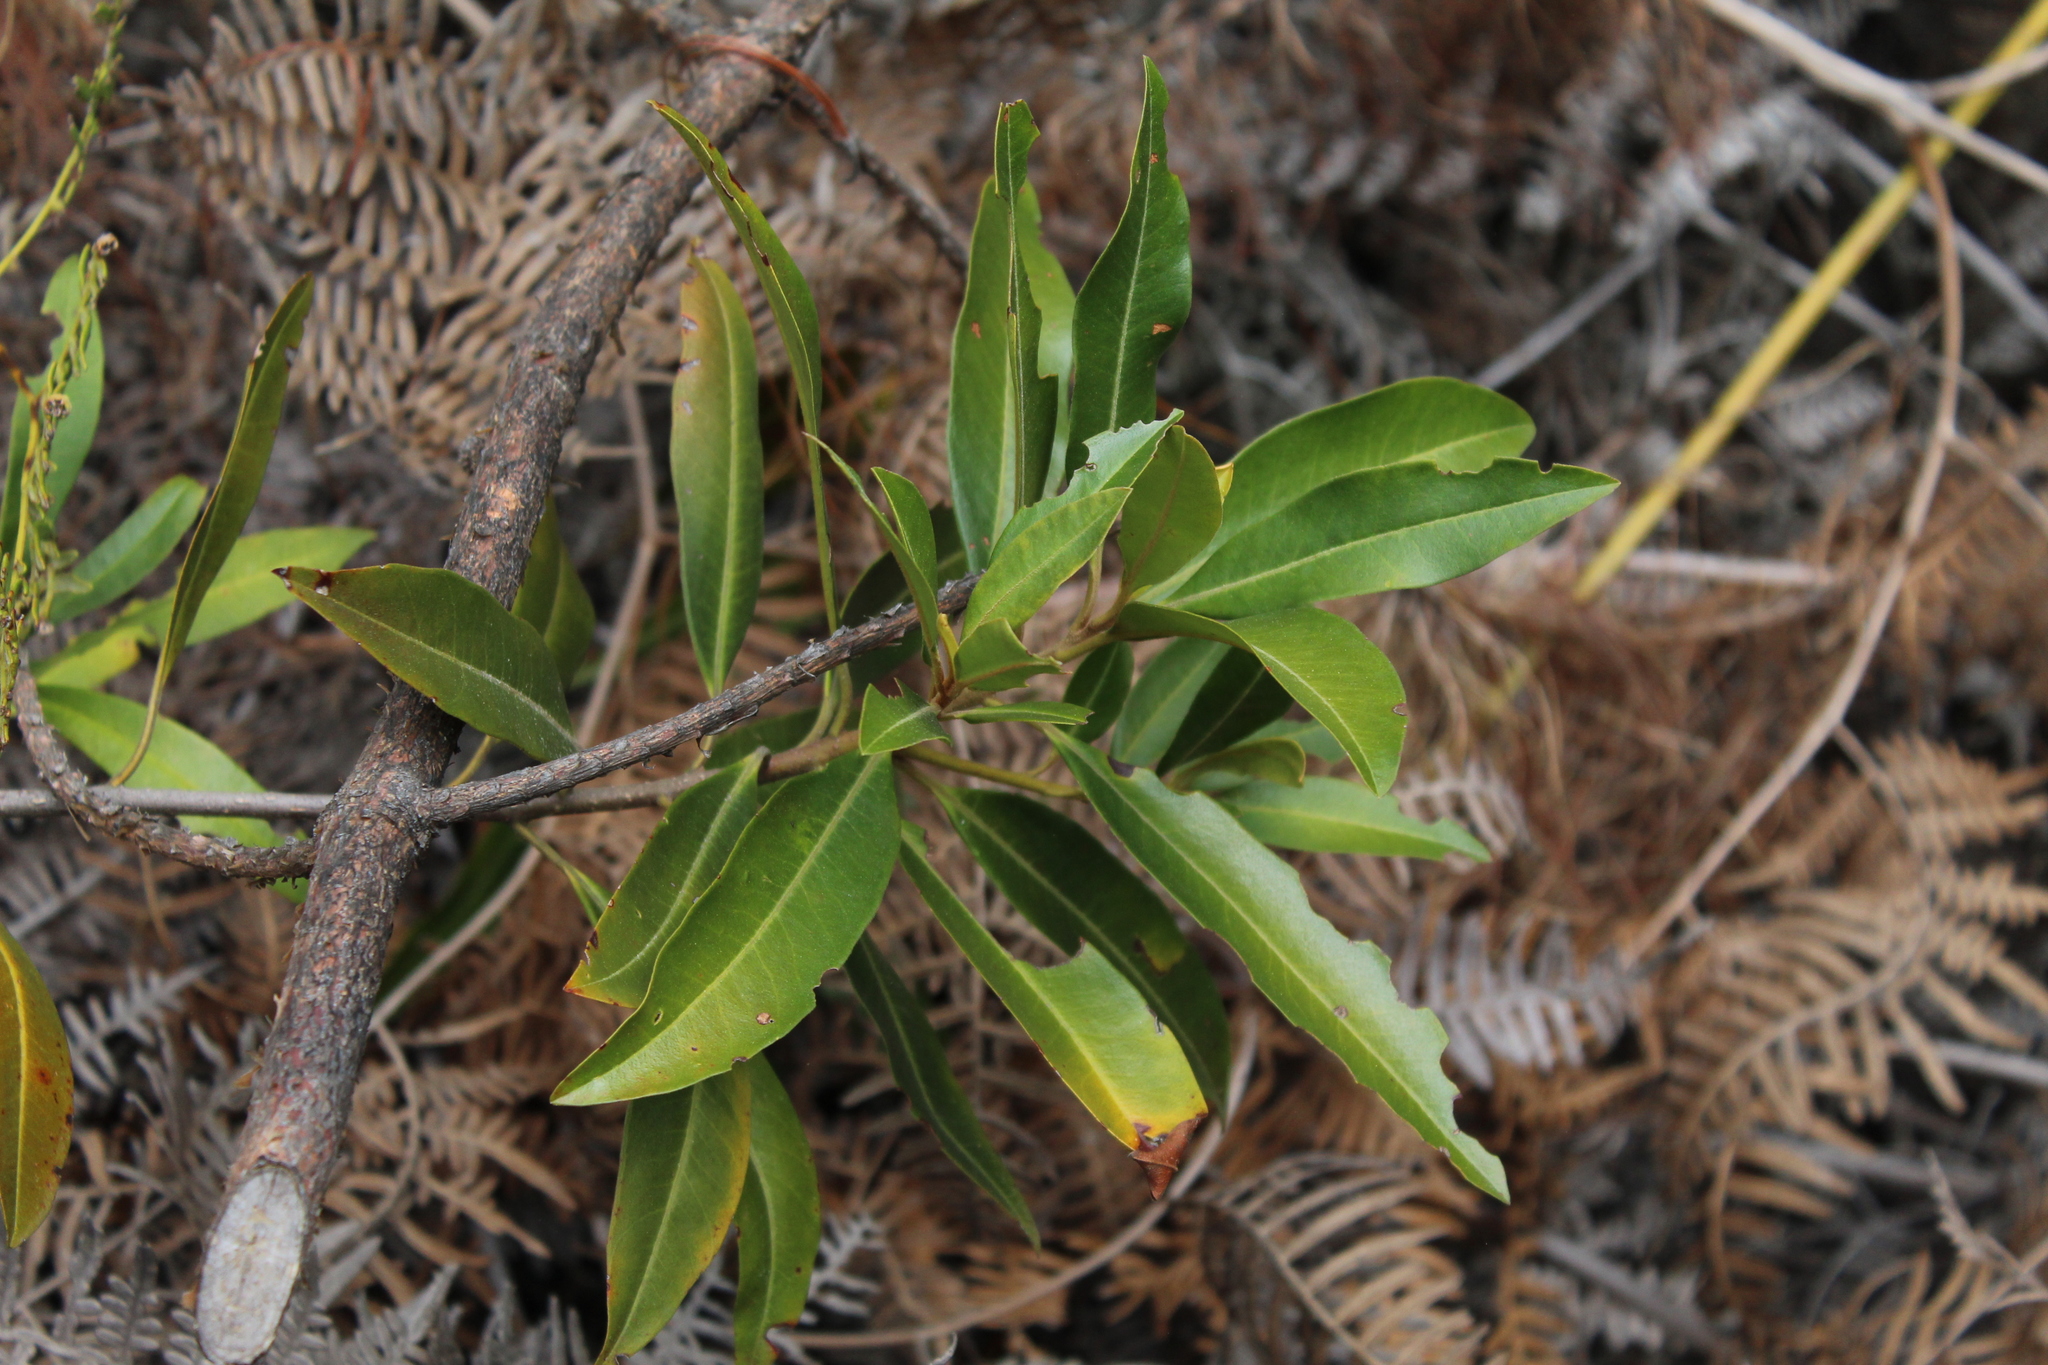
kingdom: Plantae
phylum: Tracheophyta
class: Magnoliopsida
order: Ericales
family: Primulaceae
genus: Myrsine
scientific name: Myrsine coriacea
